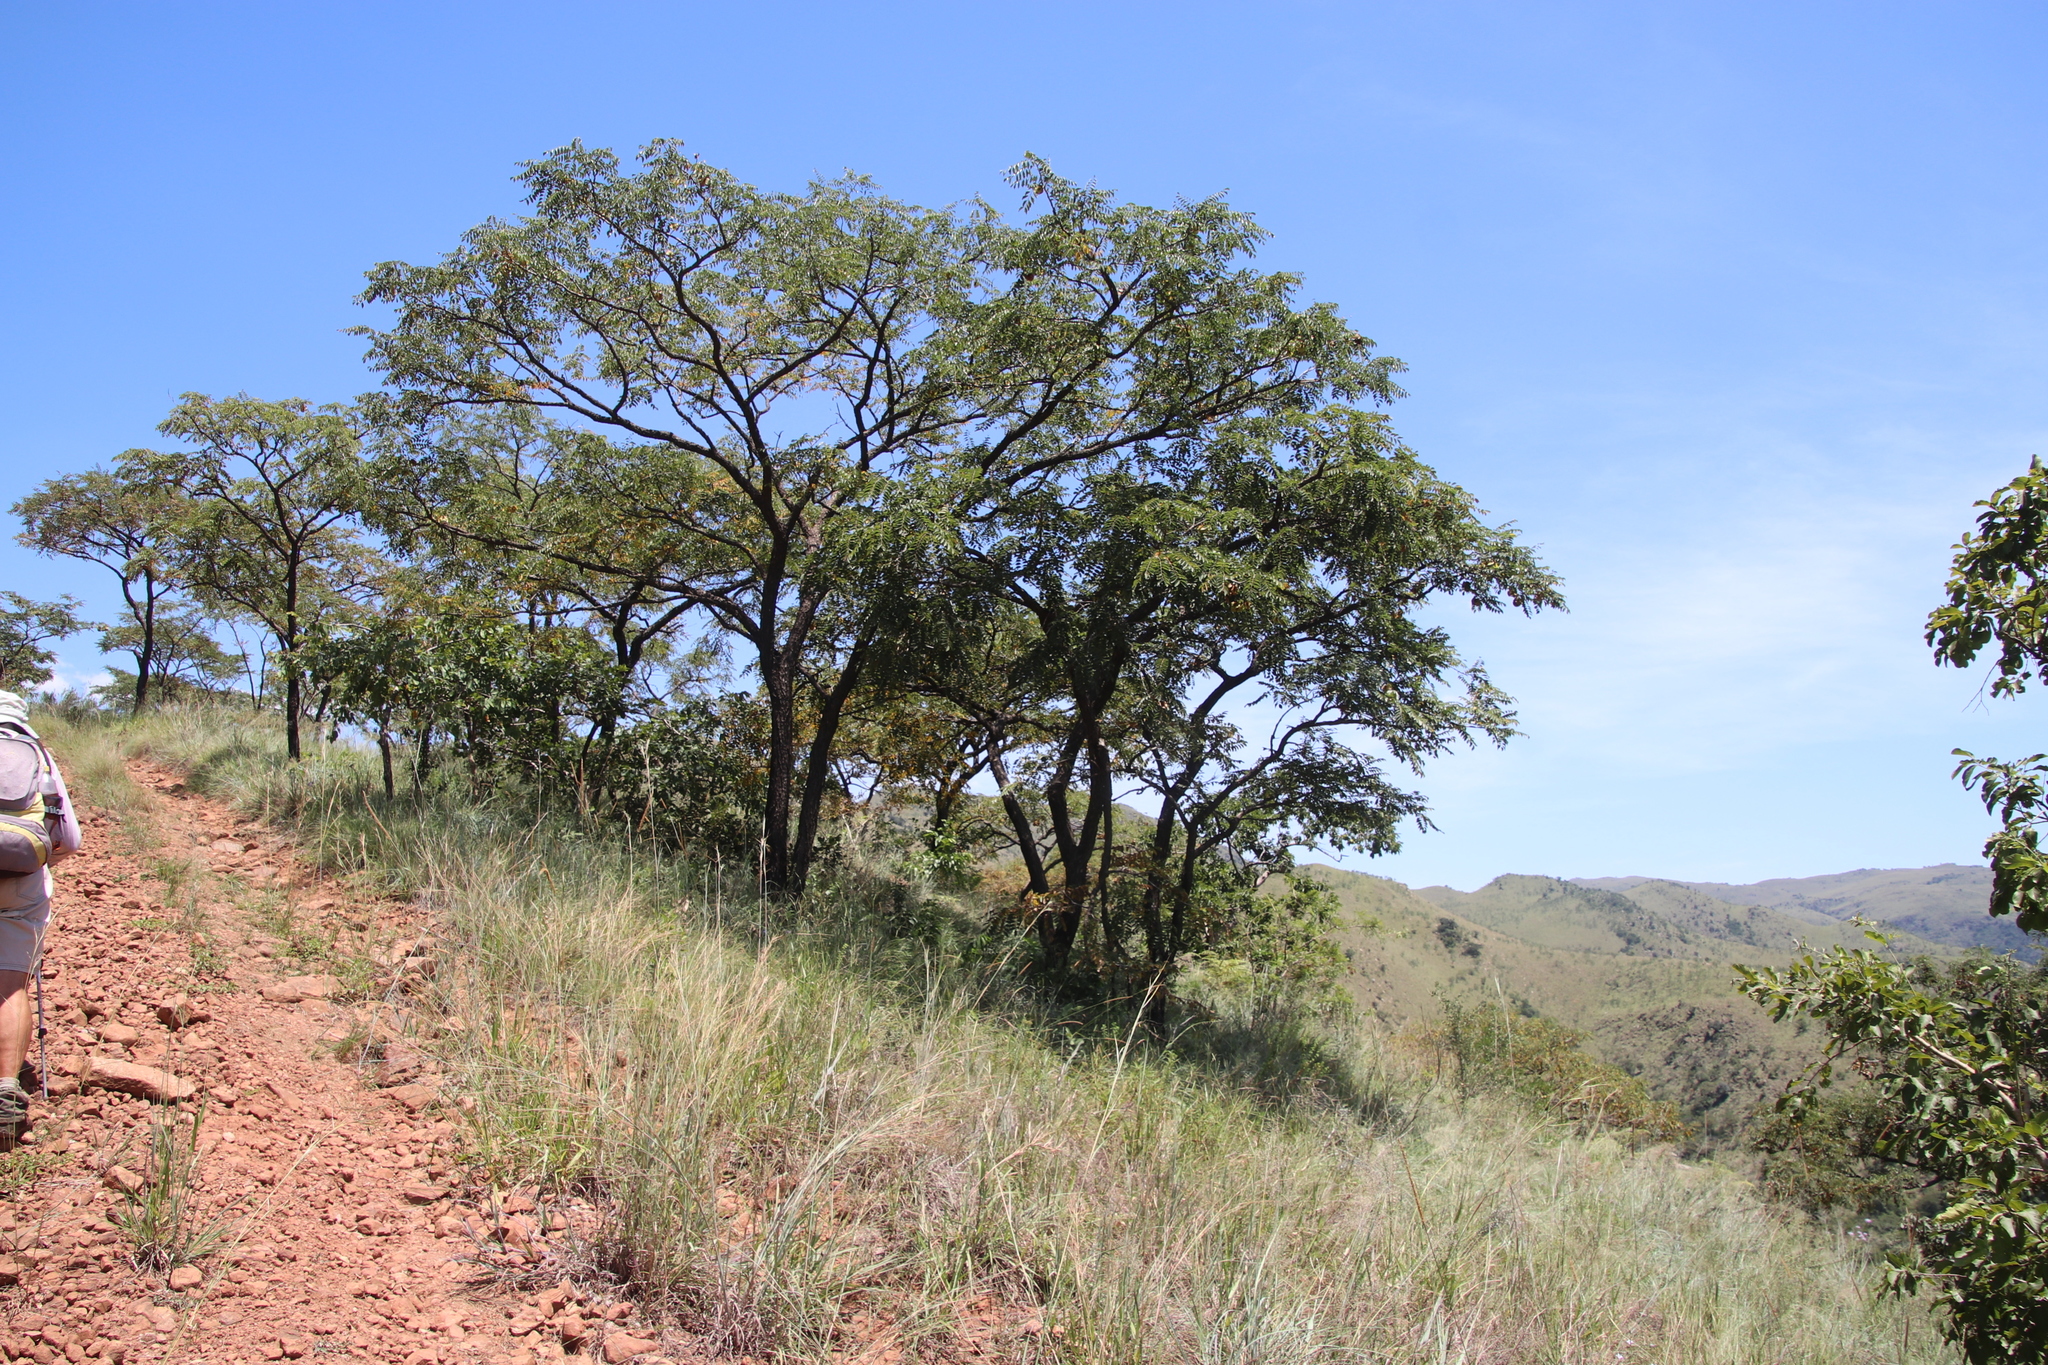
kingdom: Plantae
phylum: Tracheophyta
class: Magnoliopsida
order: Fabales
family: Fabaceae
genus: Pterocarpus
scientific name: Pterocarpus angolensis
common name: Bloodwood tree
